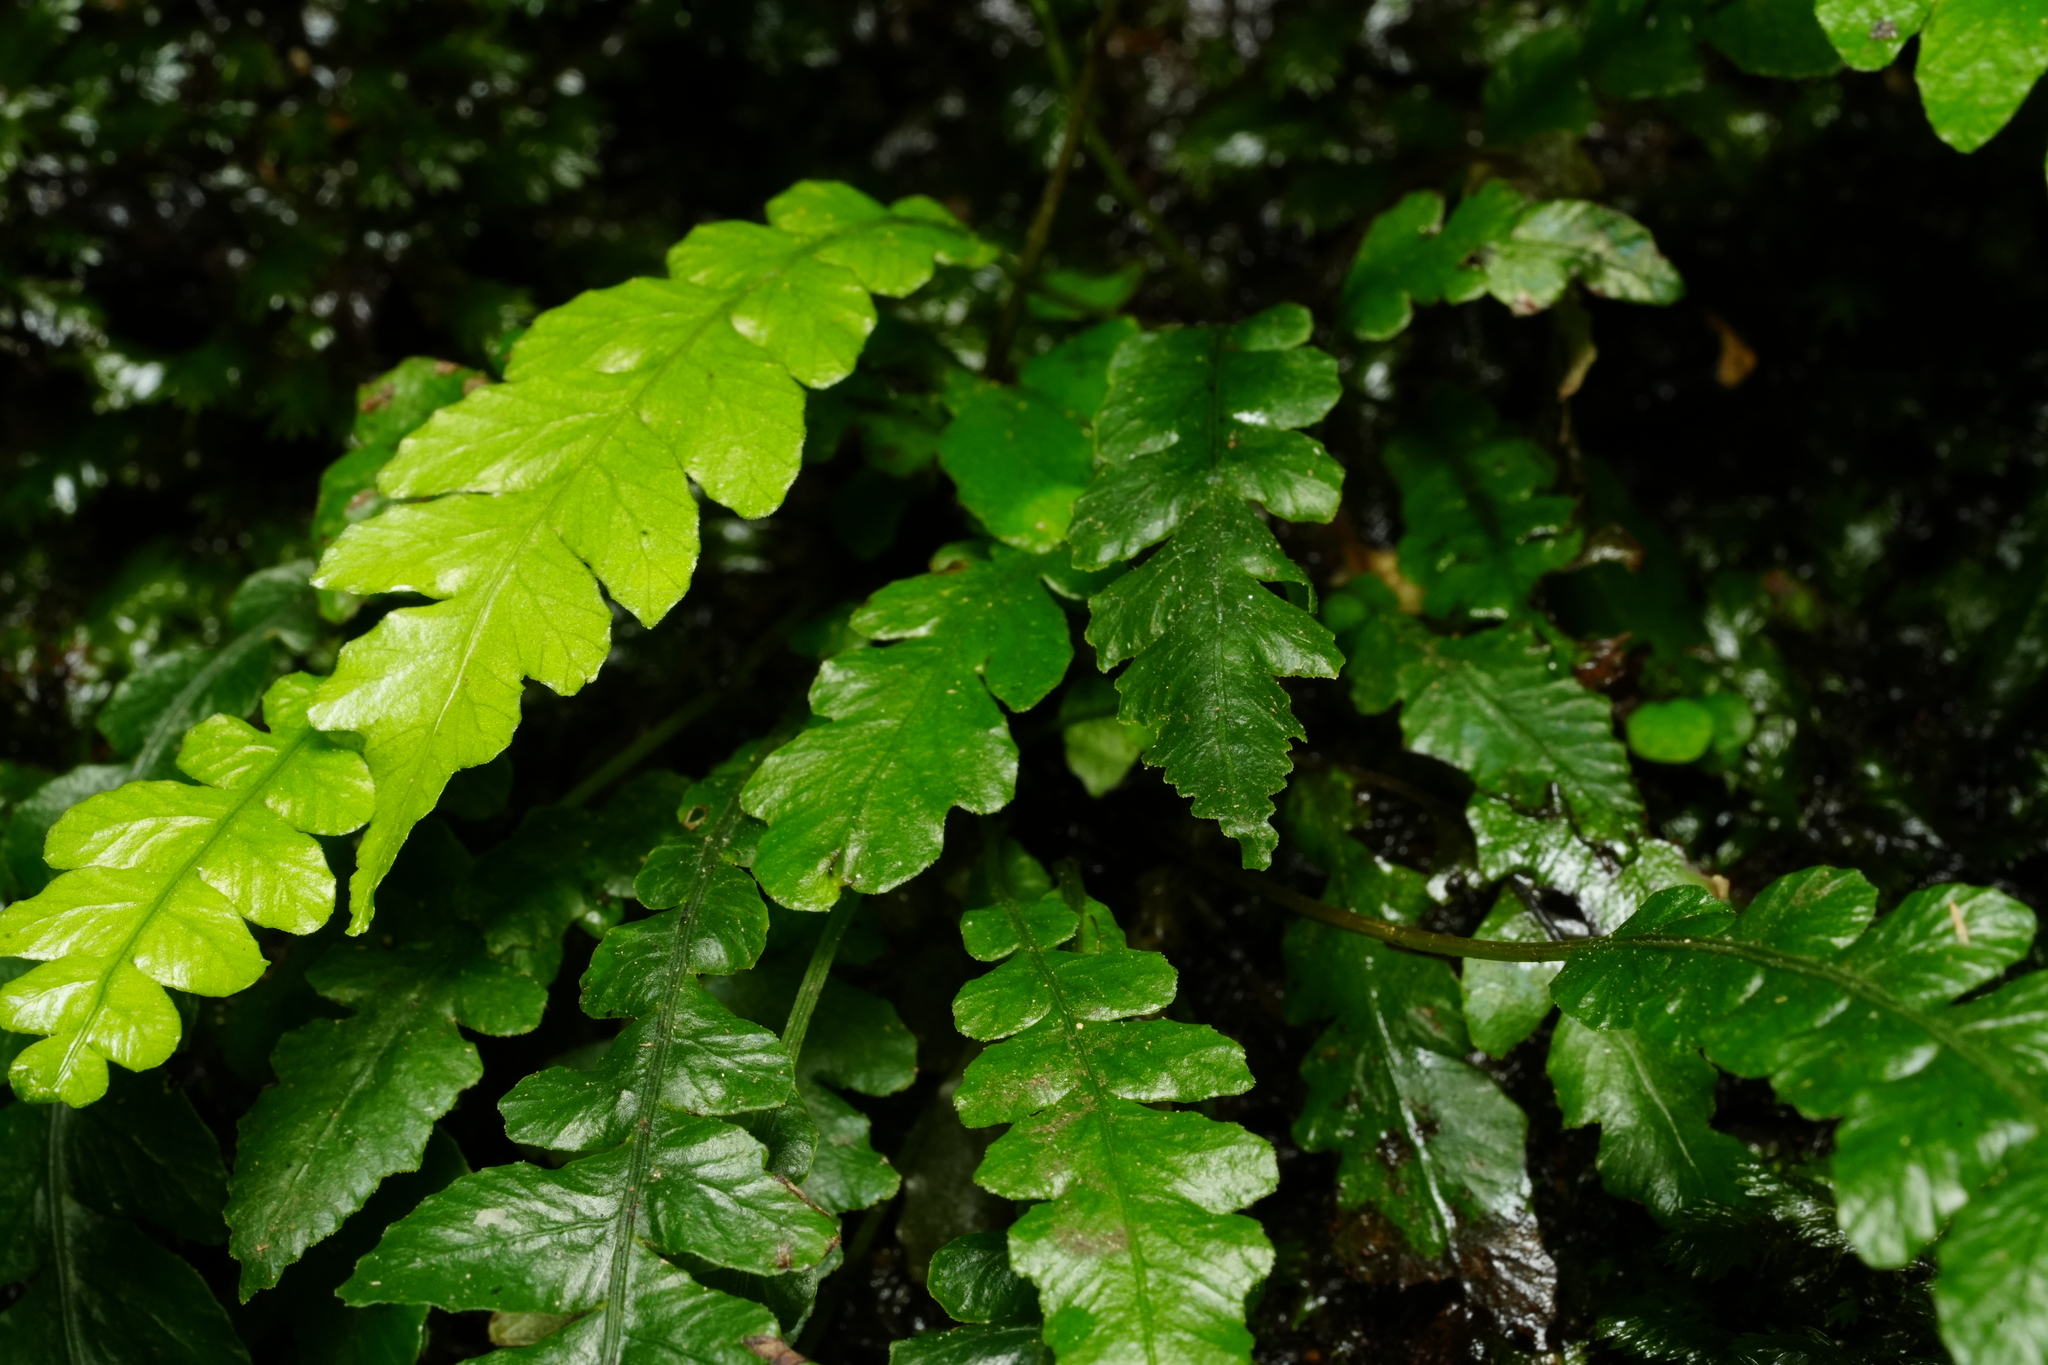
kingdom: Plantae
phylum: Tracheophyta
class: Polypodiopsida
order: Polypodiales
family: Blechnaceae
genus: Austroblechnum
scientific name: Austroblechnum lanceolatum
